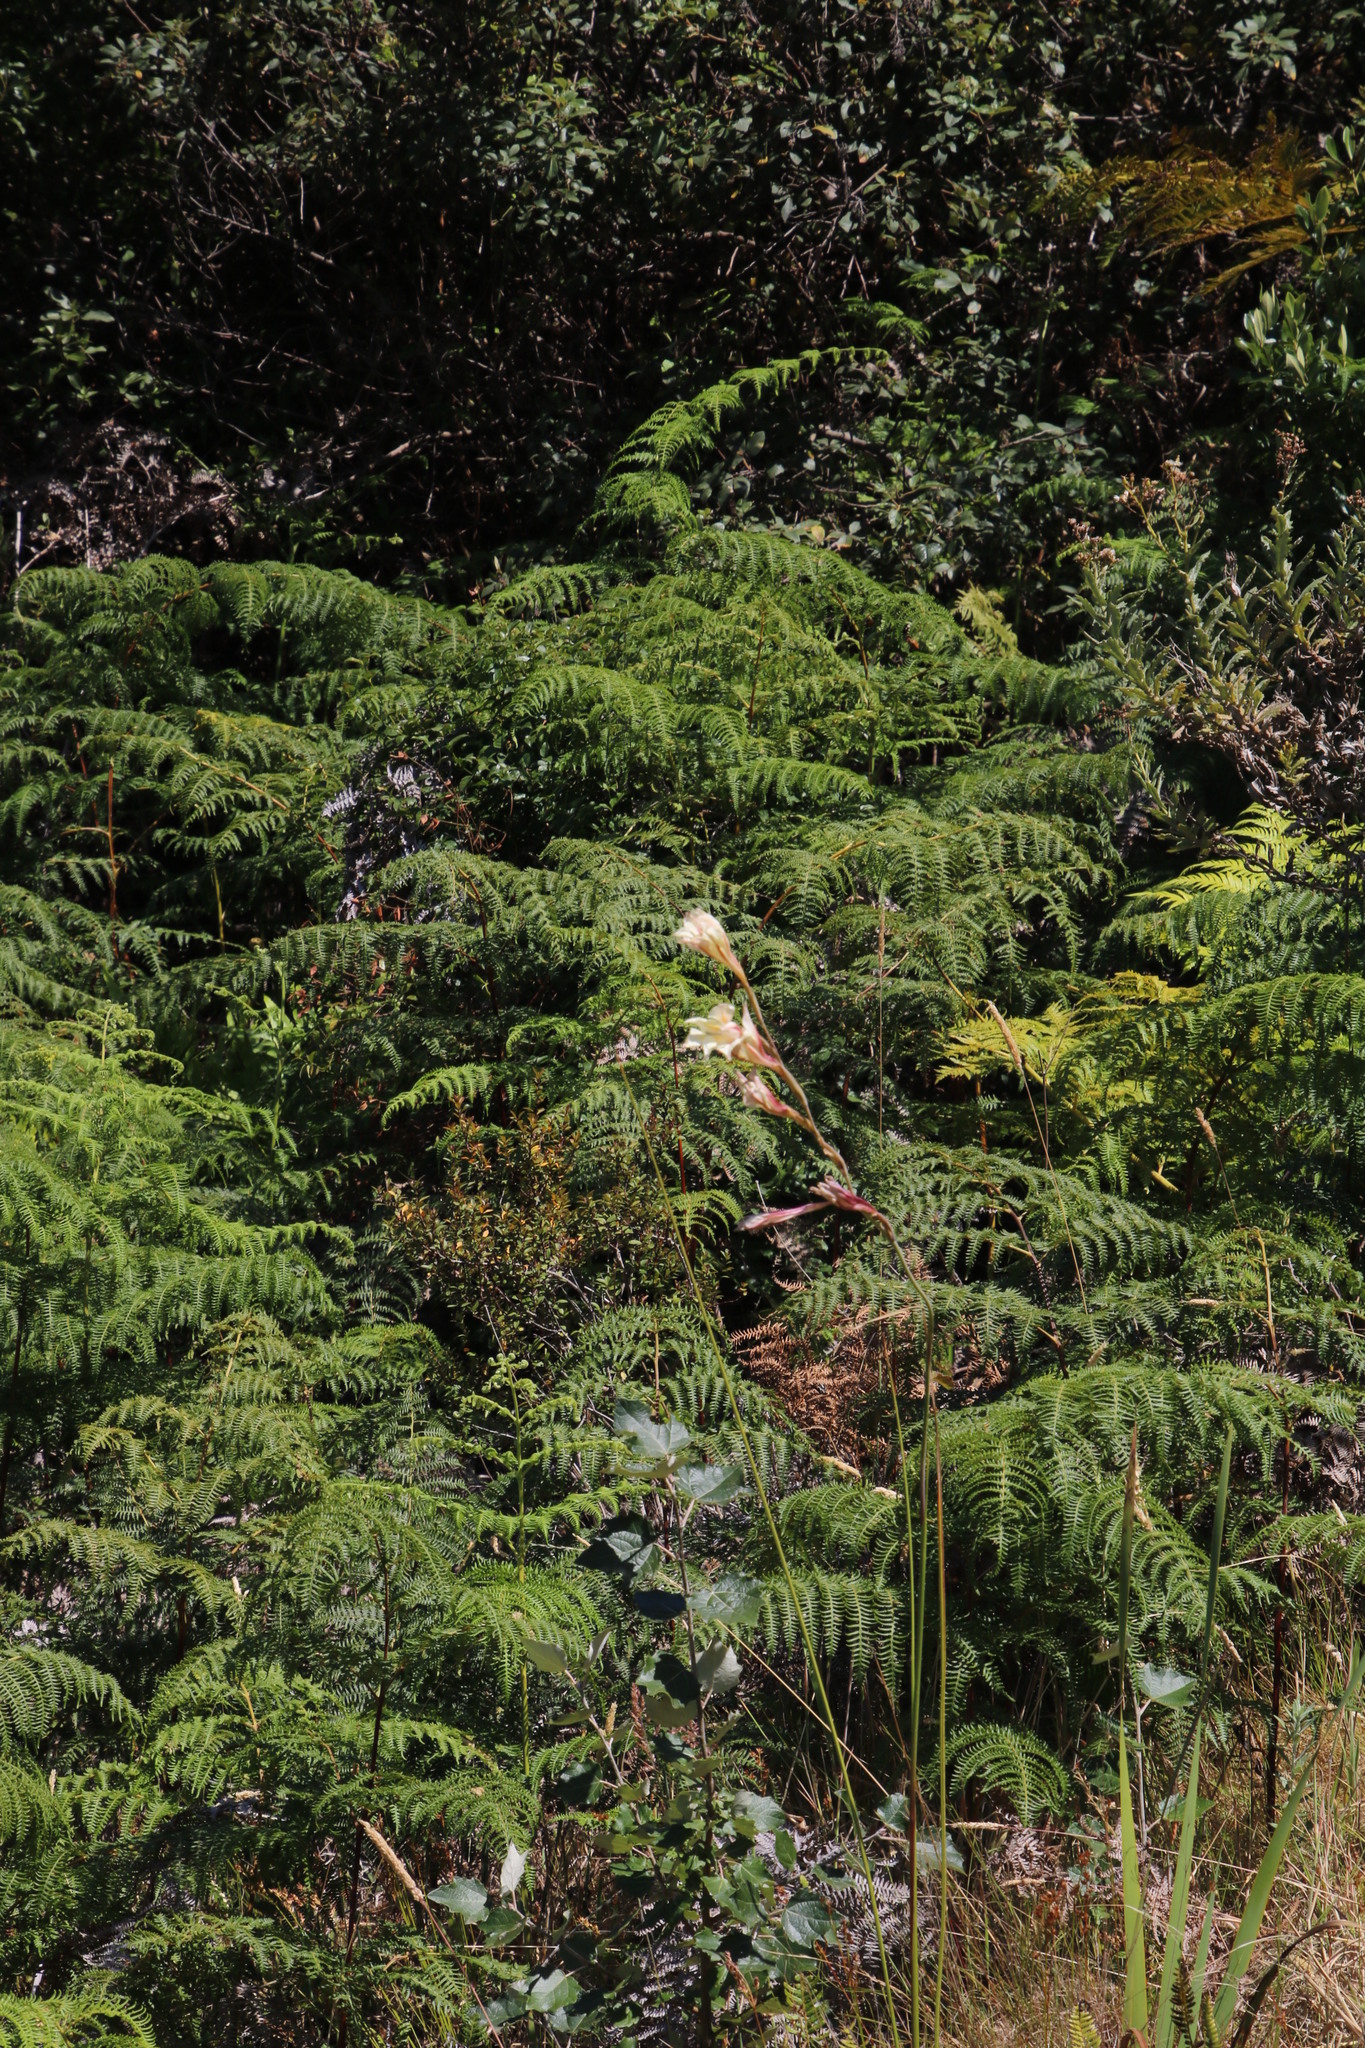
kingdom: Plantae
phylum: Tracheophyta
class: Liliopsida
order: Asparagales
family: Iridaceae
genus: Gladiolus
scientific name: Gladiolus undulatus
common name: Large painted-lady
